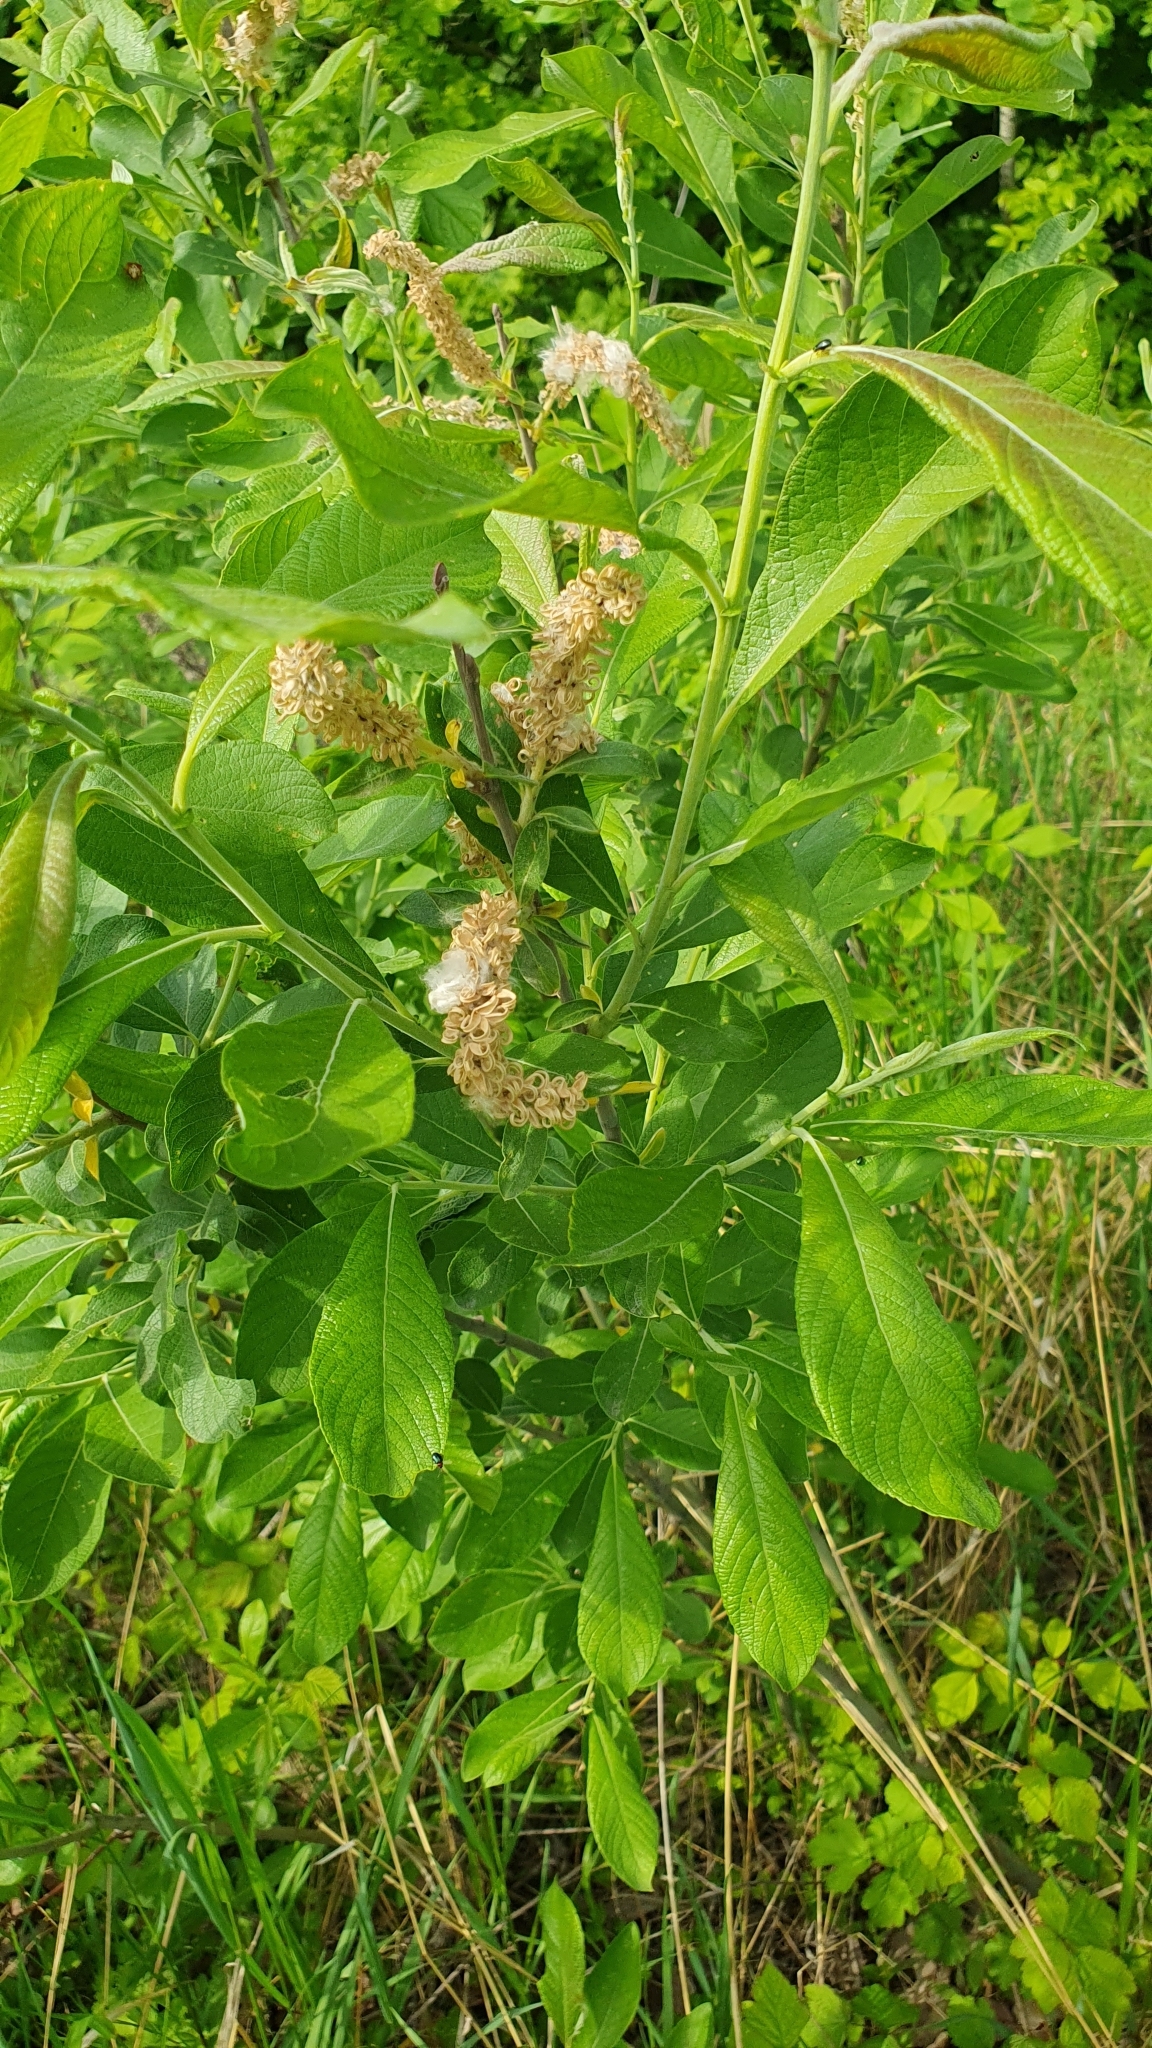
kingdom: Plantae
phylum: Tracheophyta
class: Magnoliopsida
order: Malpighiales
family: Salicaceae
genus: Salix
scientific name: Salix cinerea
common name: Common sallow
